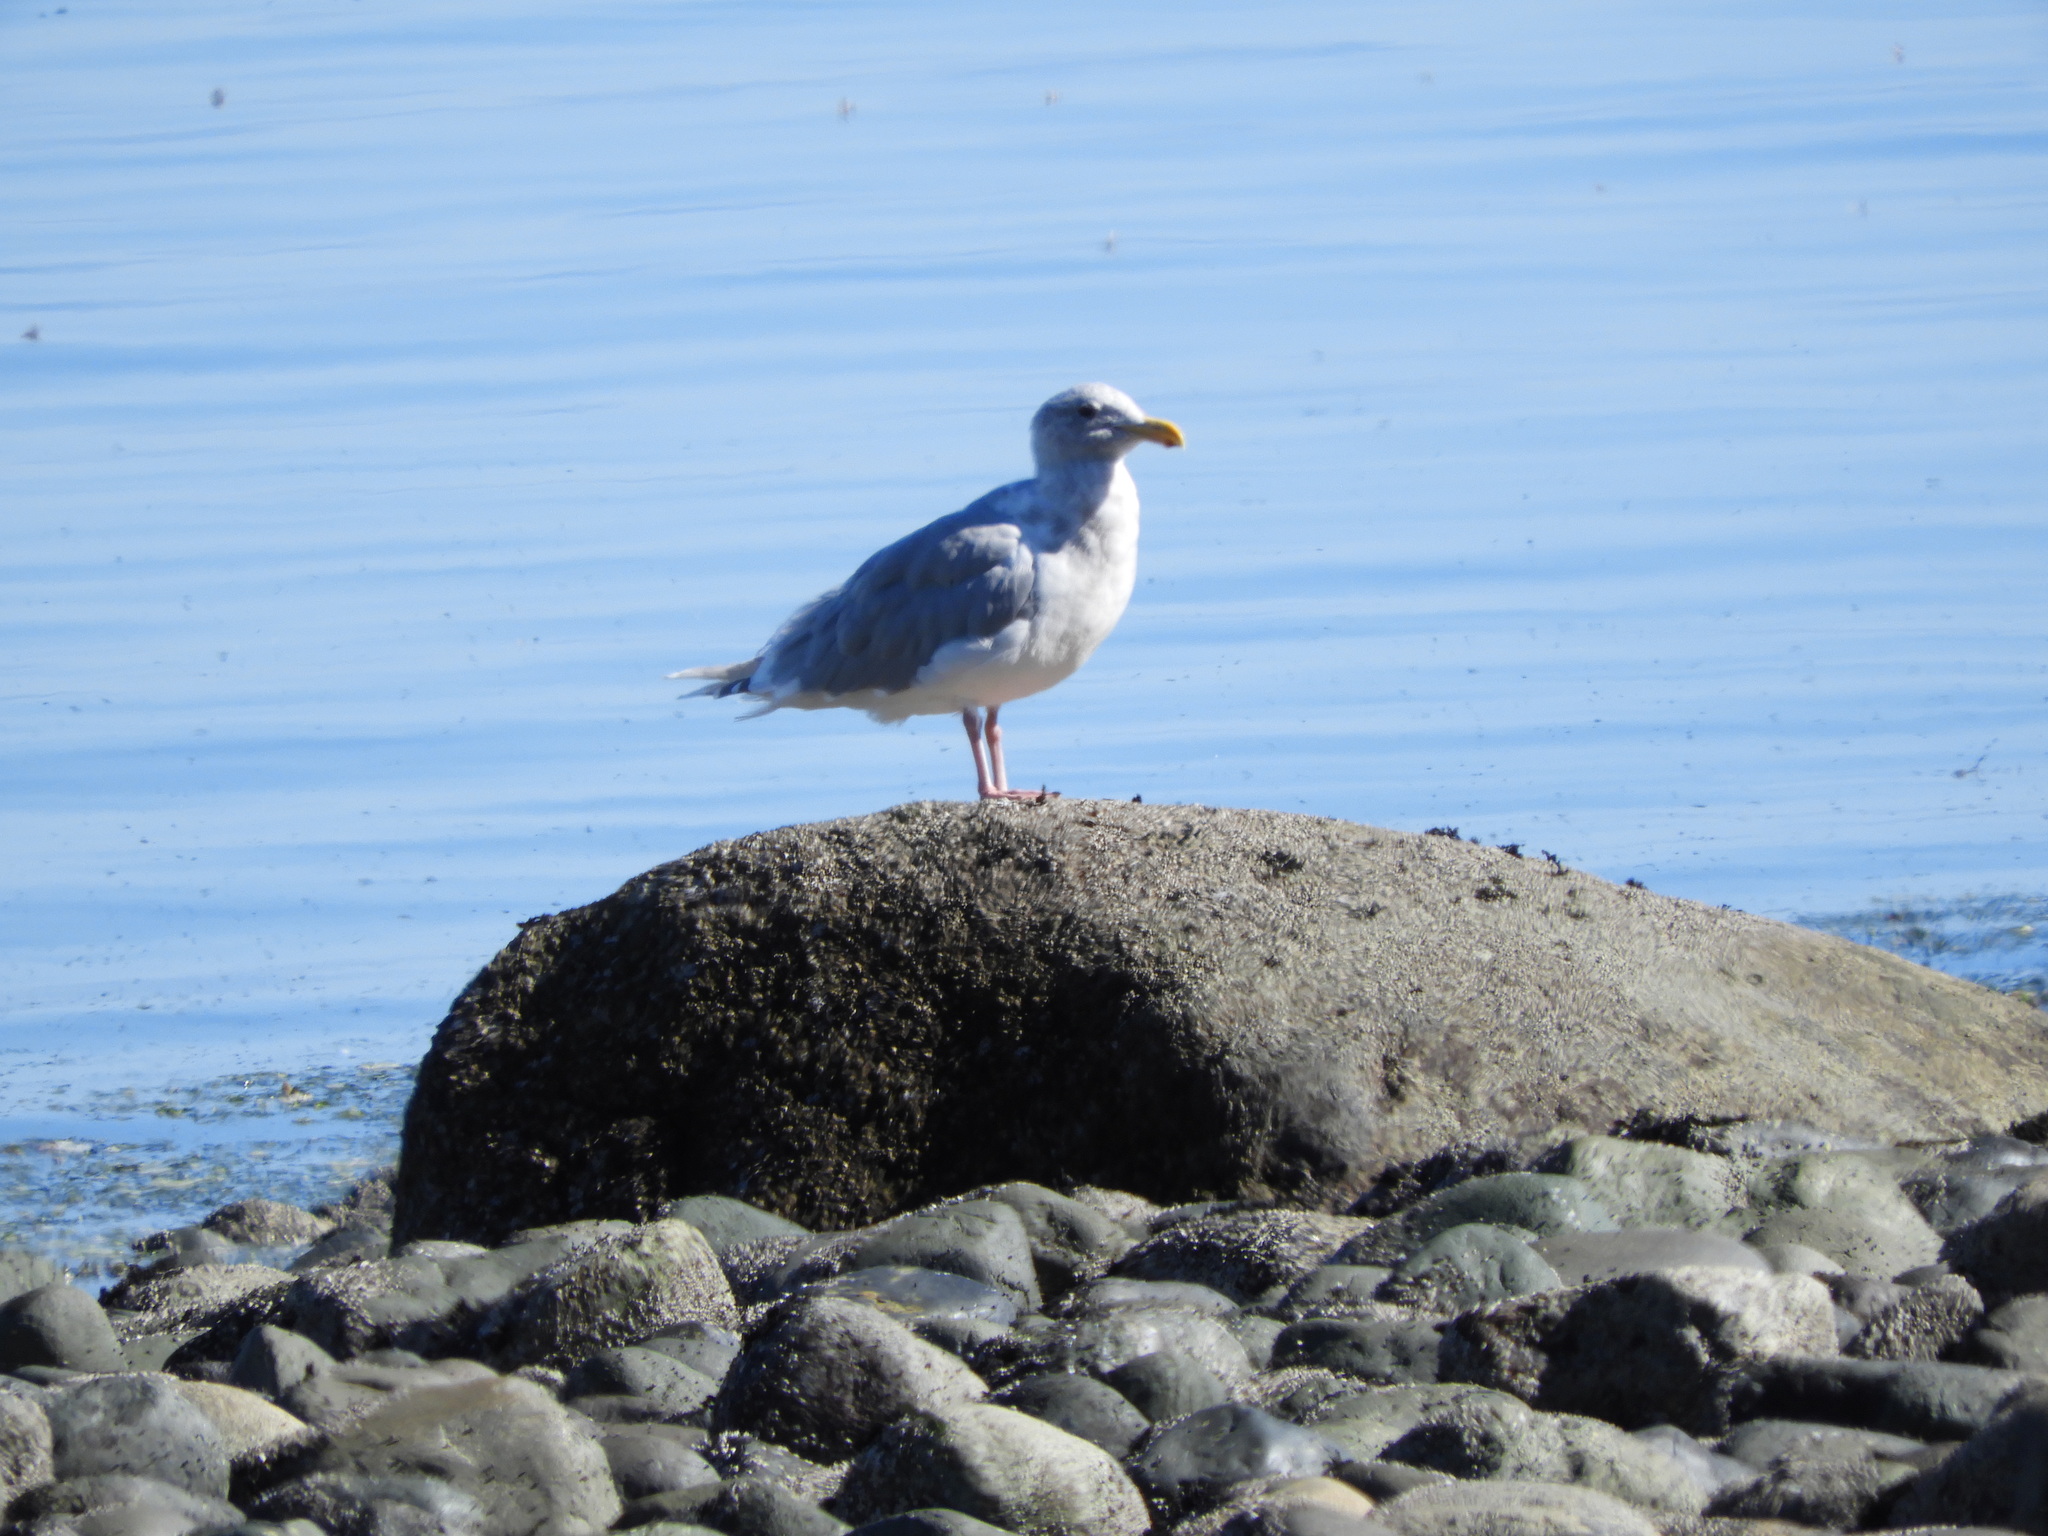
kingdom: Animalia
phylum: Chordata
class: Aves
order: Charadriiformes
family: Laridae
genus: Larus
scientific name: Larus
